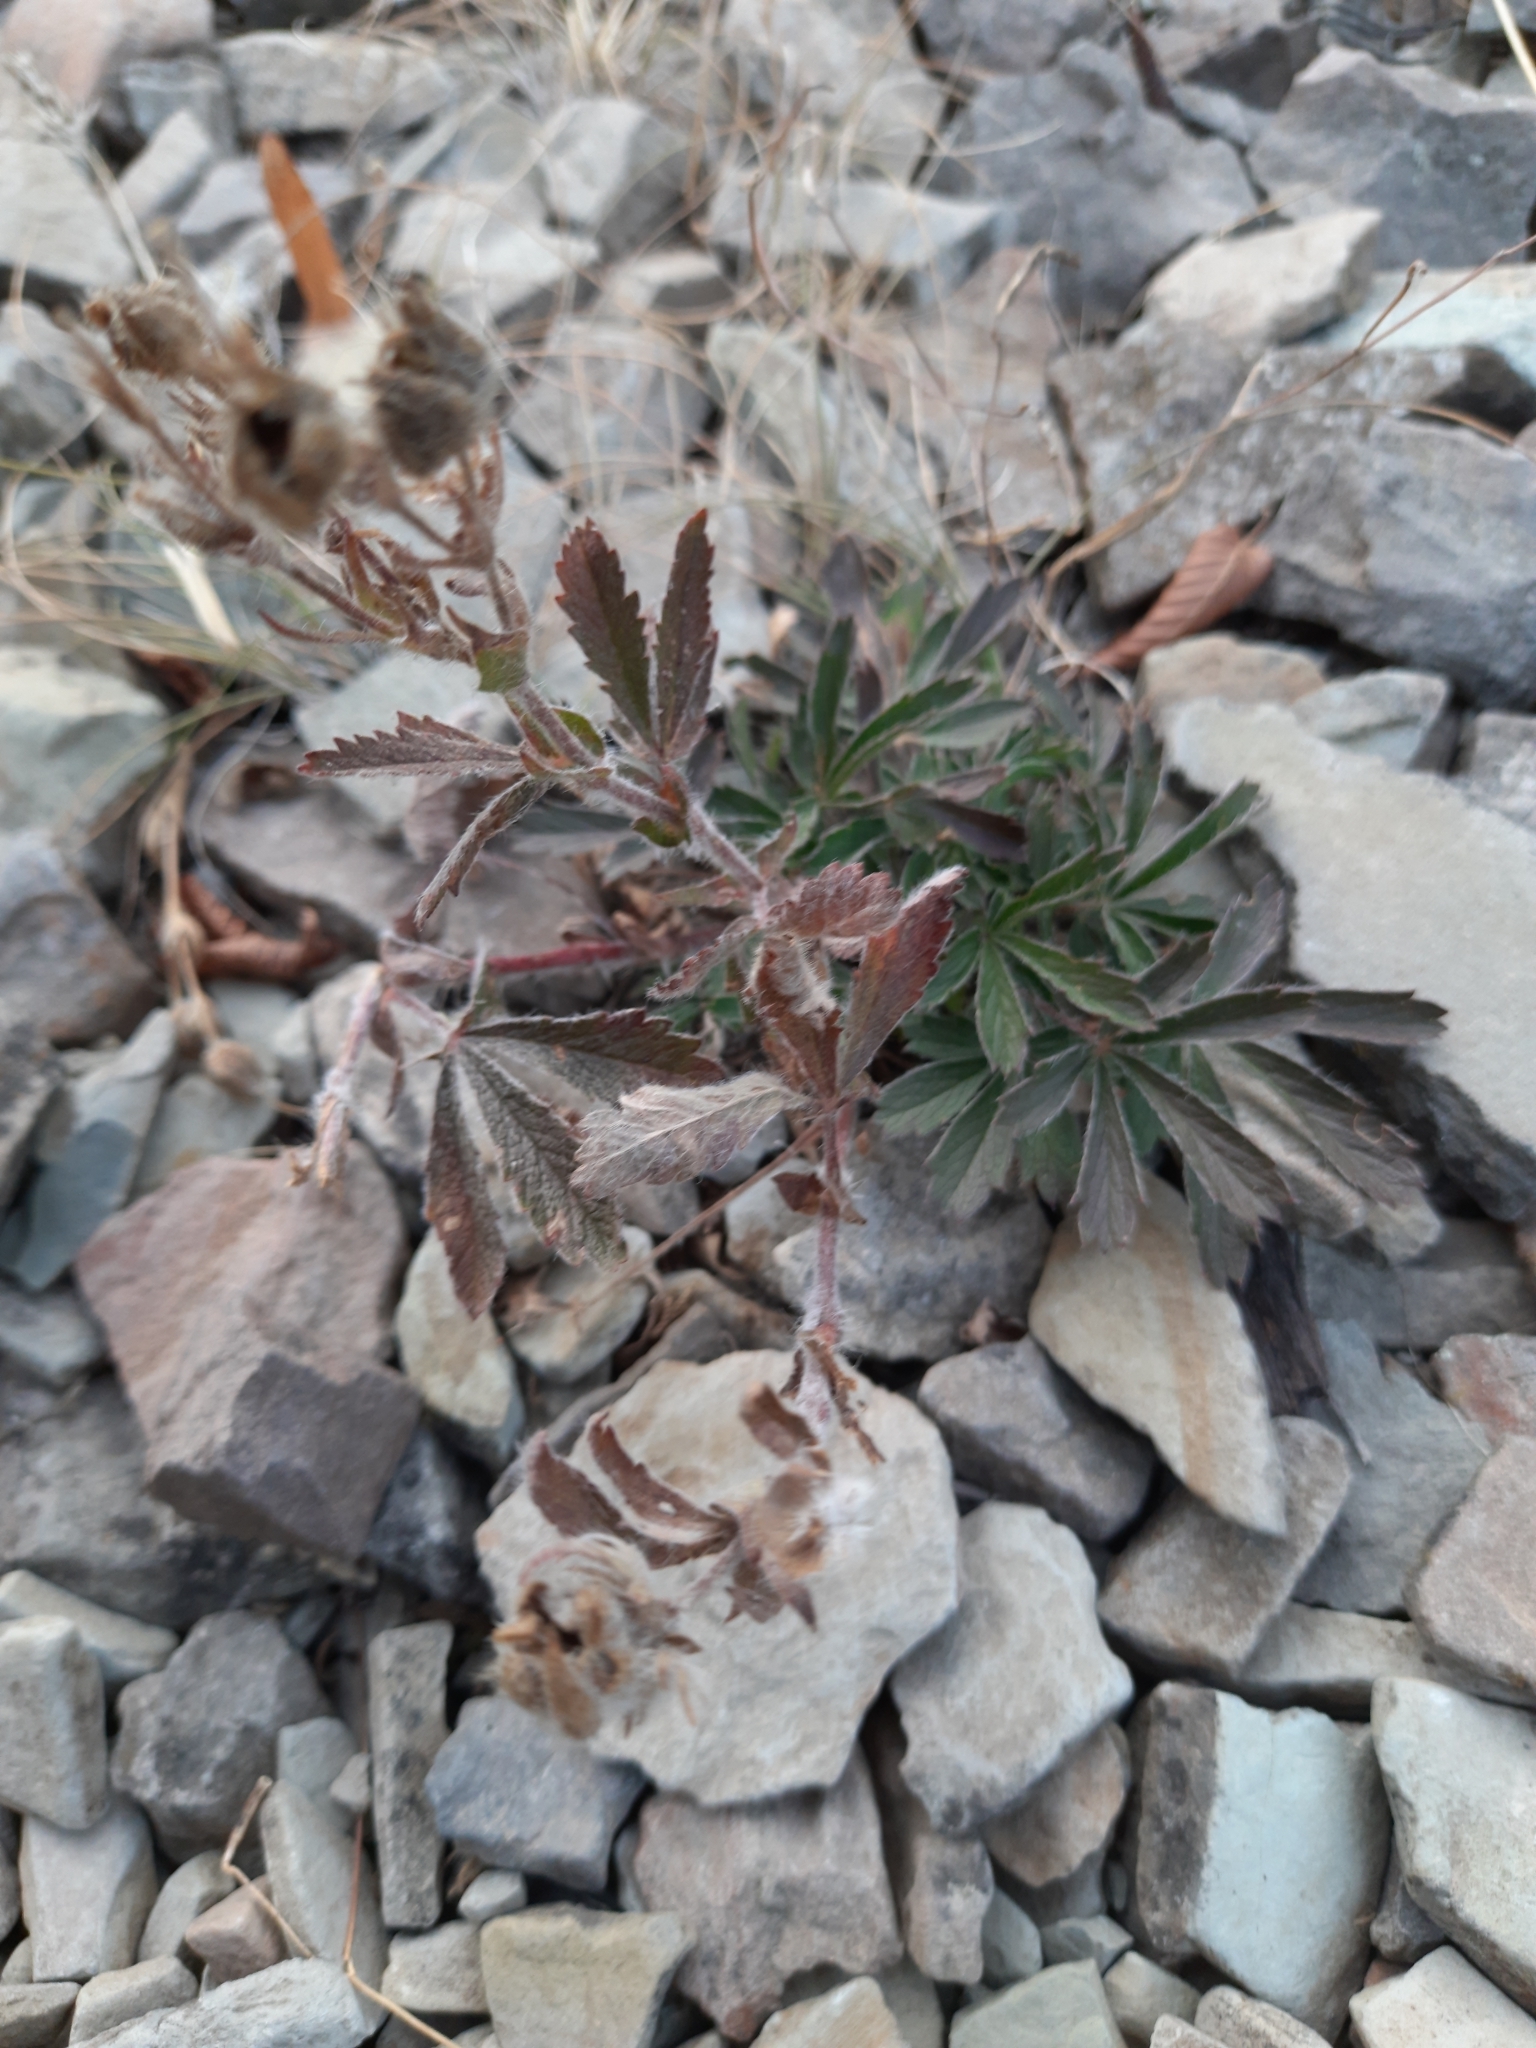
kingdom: Plantae
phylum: Tracheophyta
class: Magnoliopsida
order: Rosales
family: Rosaceae
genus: Potentilla
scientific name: Potentilla taurica
